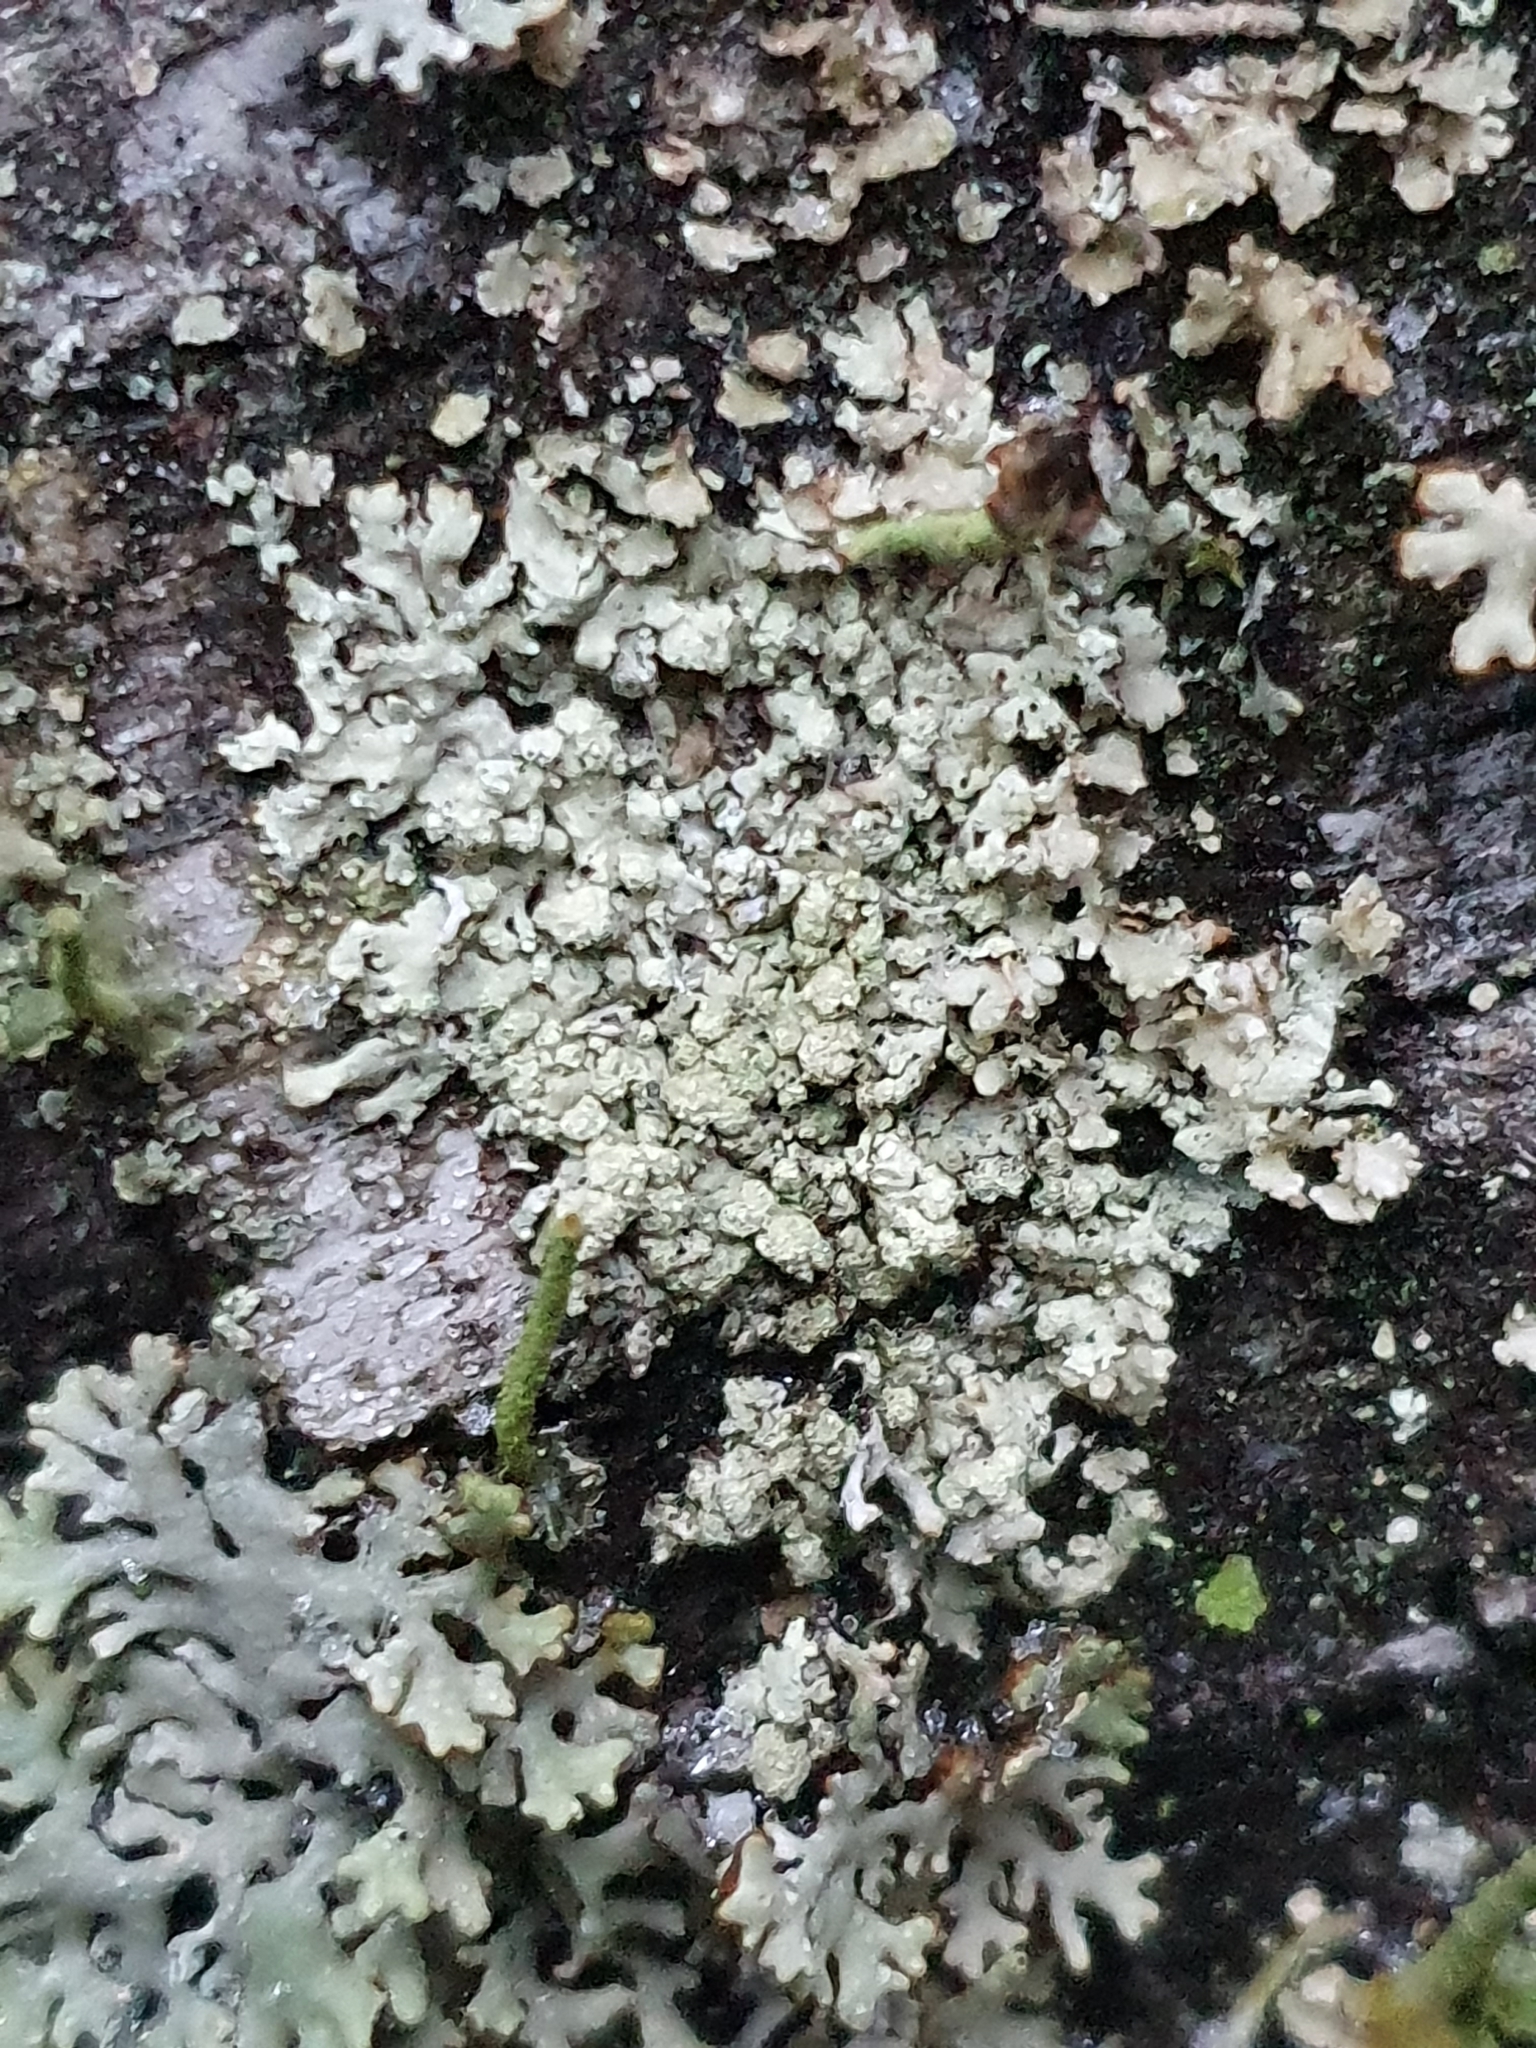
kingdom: Fungi
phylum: Ascomycota
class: Lecanoromycetes
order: Lecanorales
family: Parmeliaceae
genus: Parmeliopsis
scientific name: Parmeliopsis ambigua
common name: Green starburst lichen
